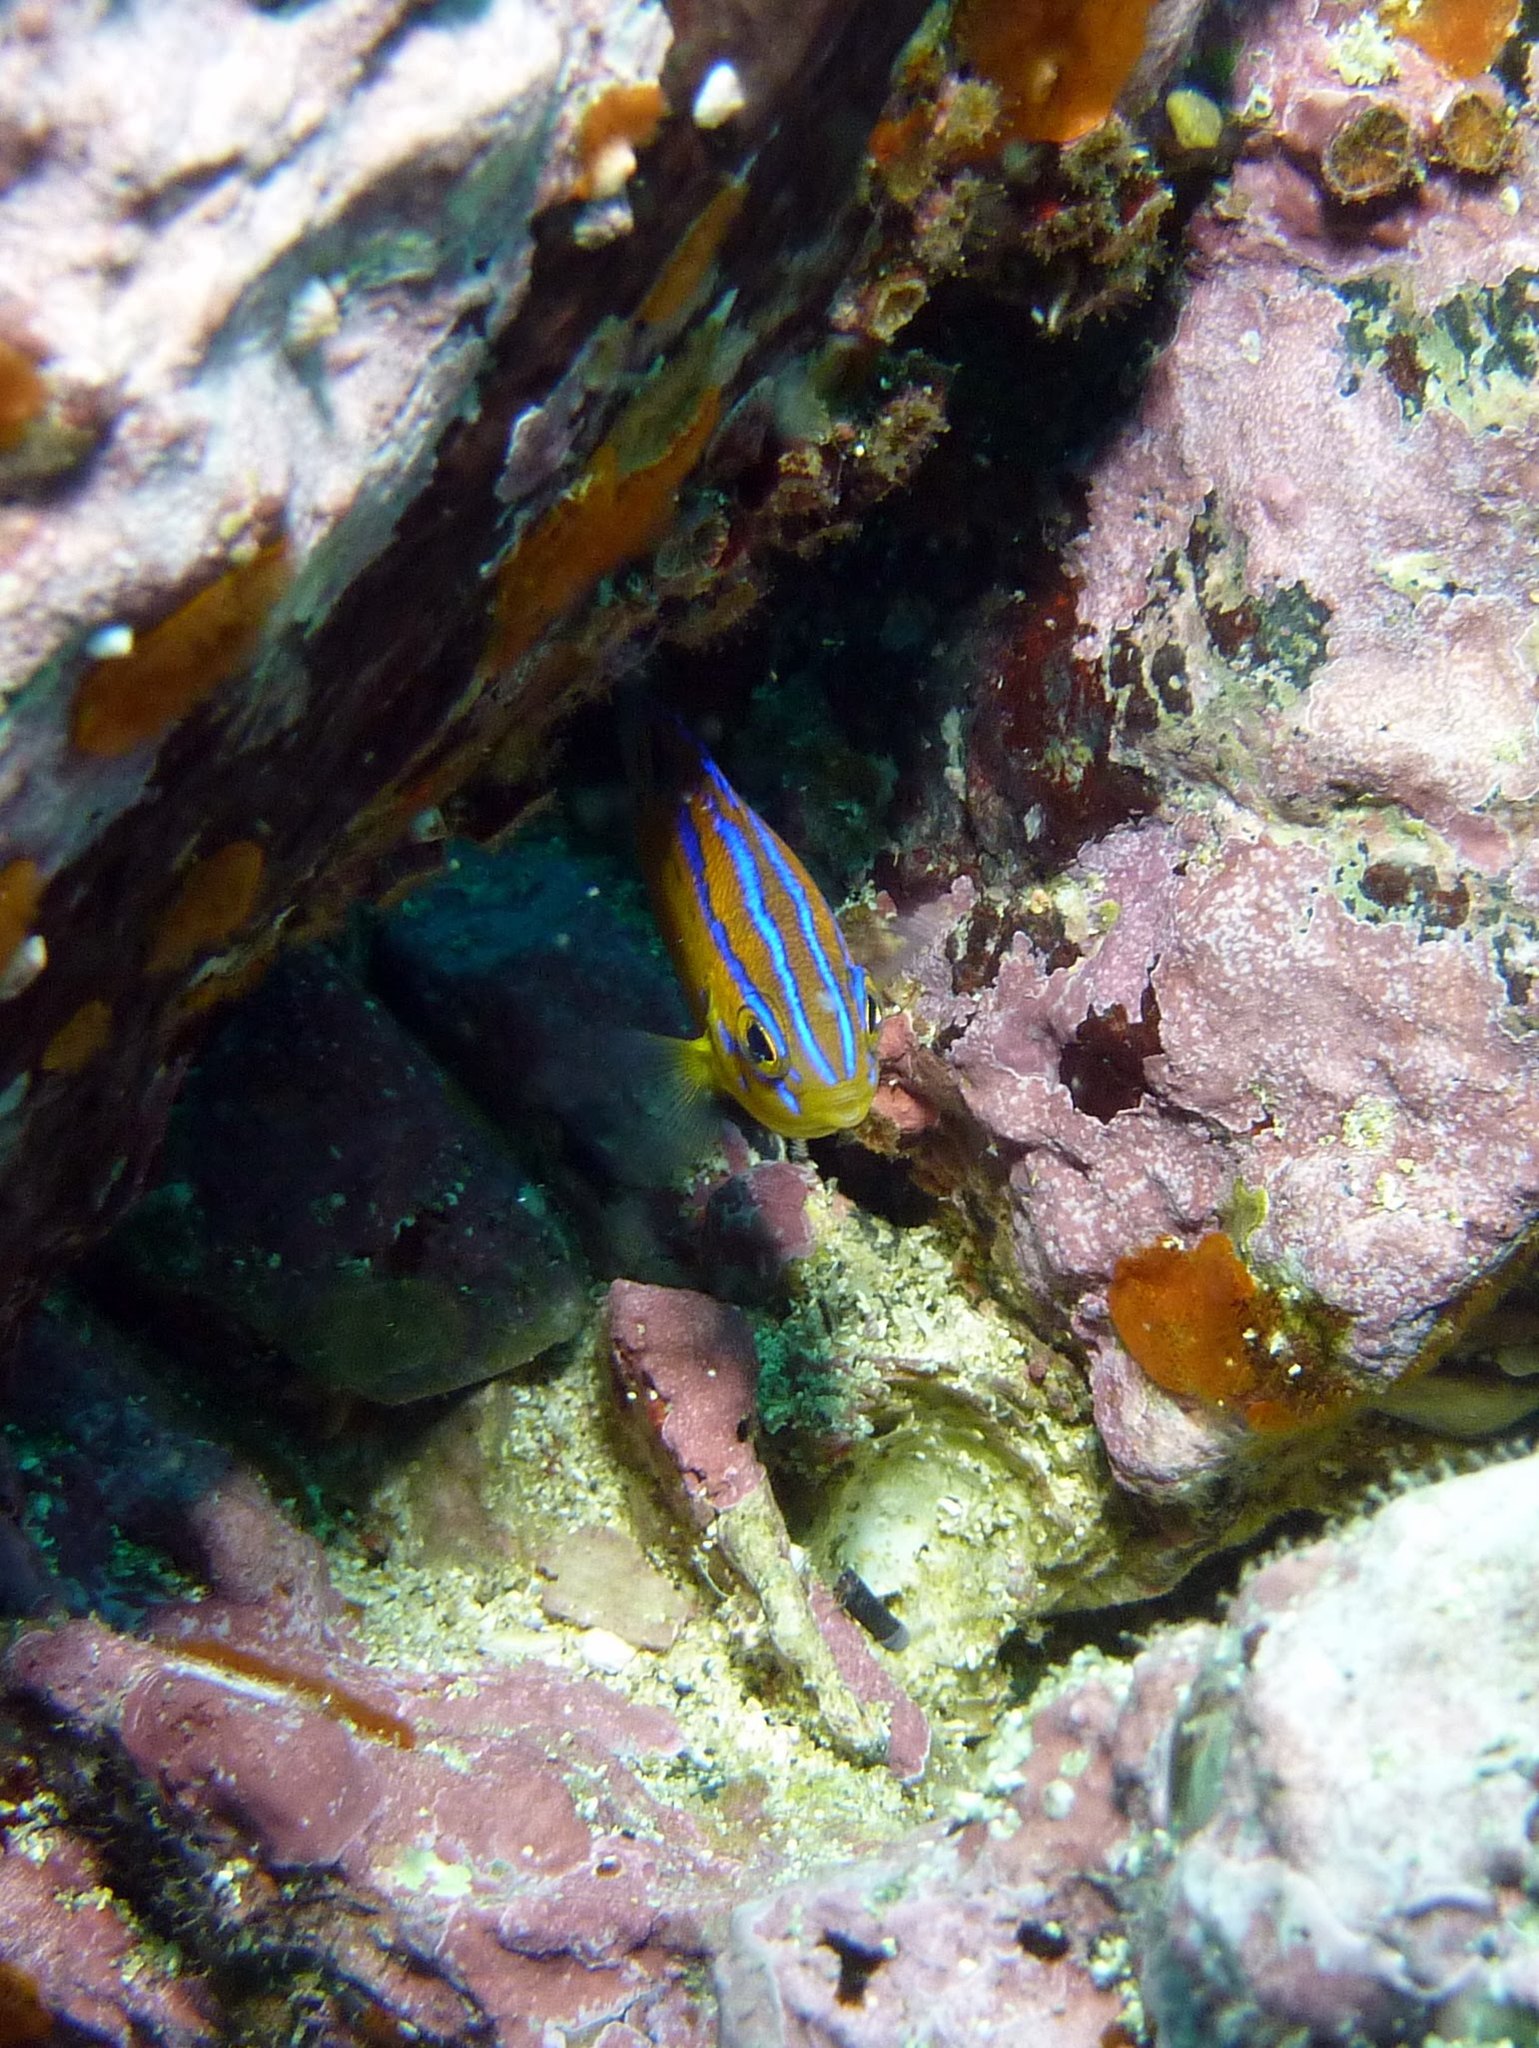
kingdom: Animalia
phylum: Chordata
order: Perciformes
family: Pomacentridae
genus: Parma
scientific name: Parma microlepis
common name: White-ear
